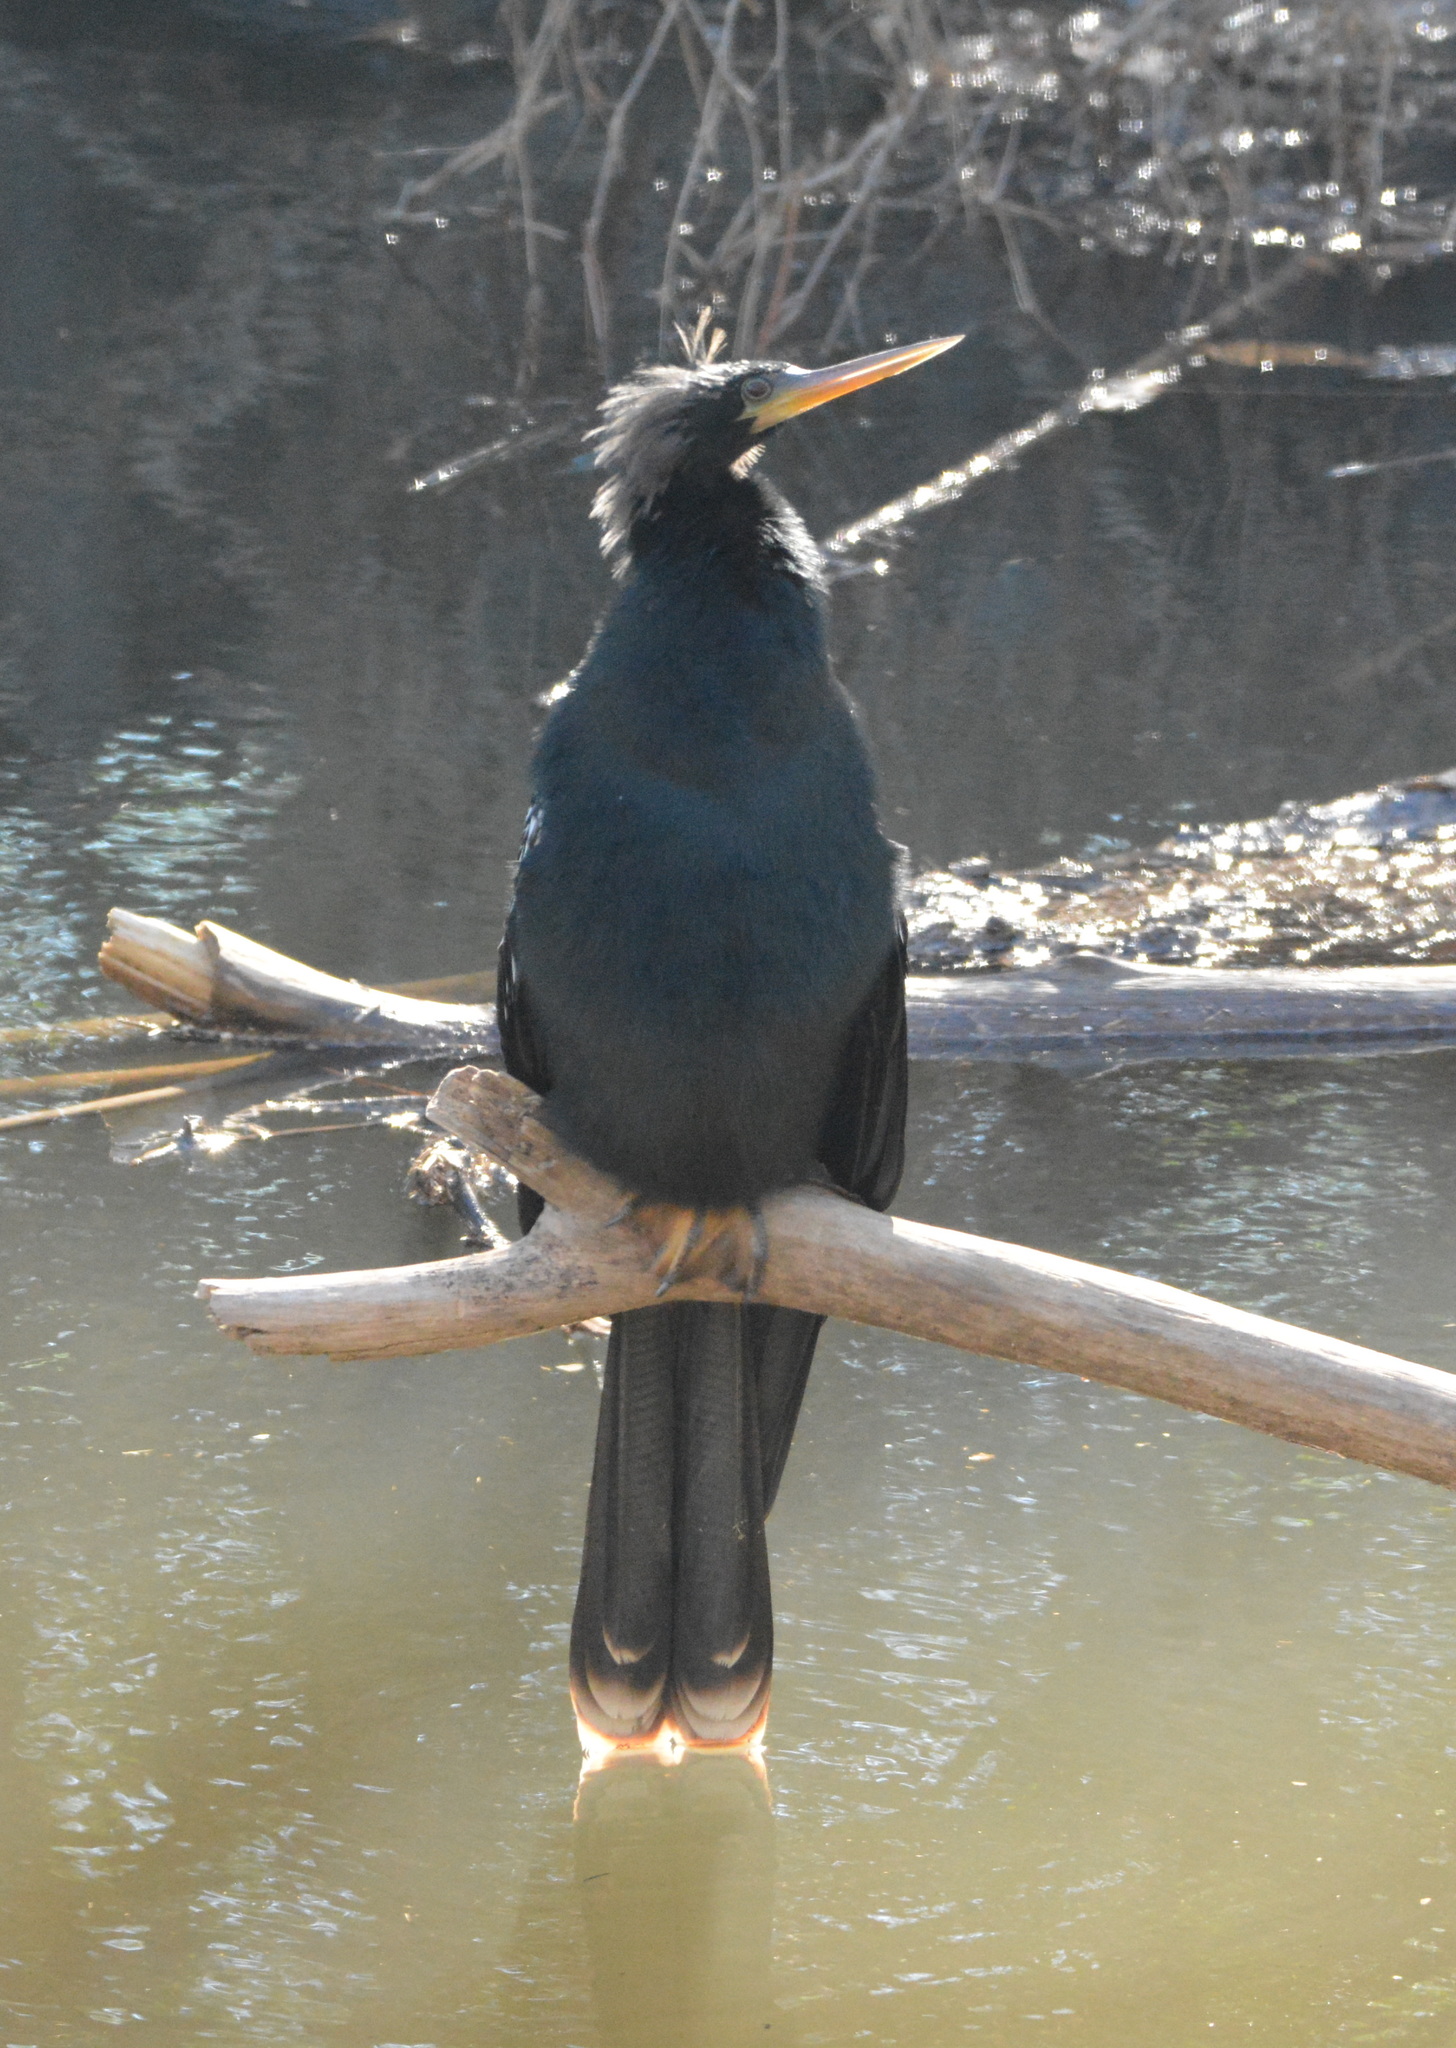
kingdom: Animalia
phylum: Chordata
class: Aves
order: Suliformes
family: Anhingidae
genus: Anhinga
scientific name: Anhinga anhinga
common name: Anhinga
